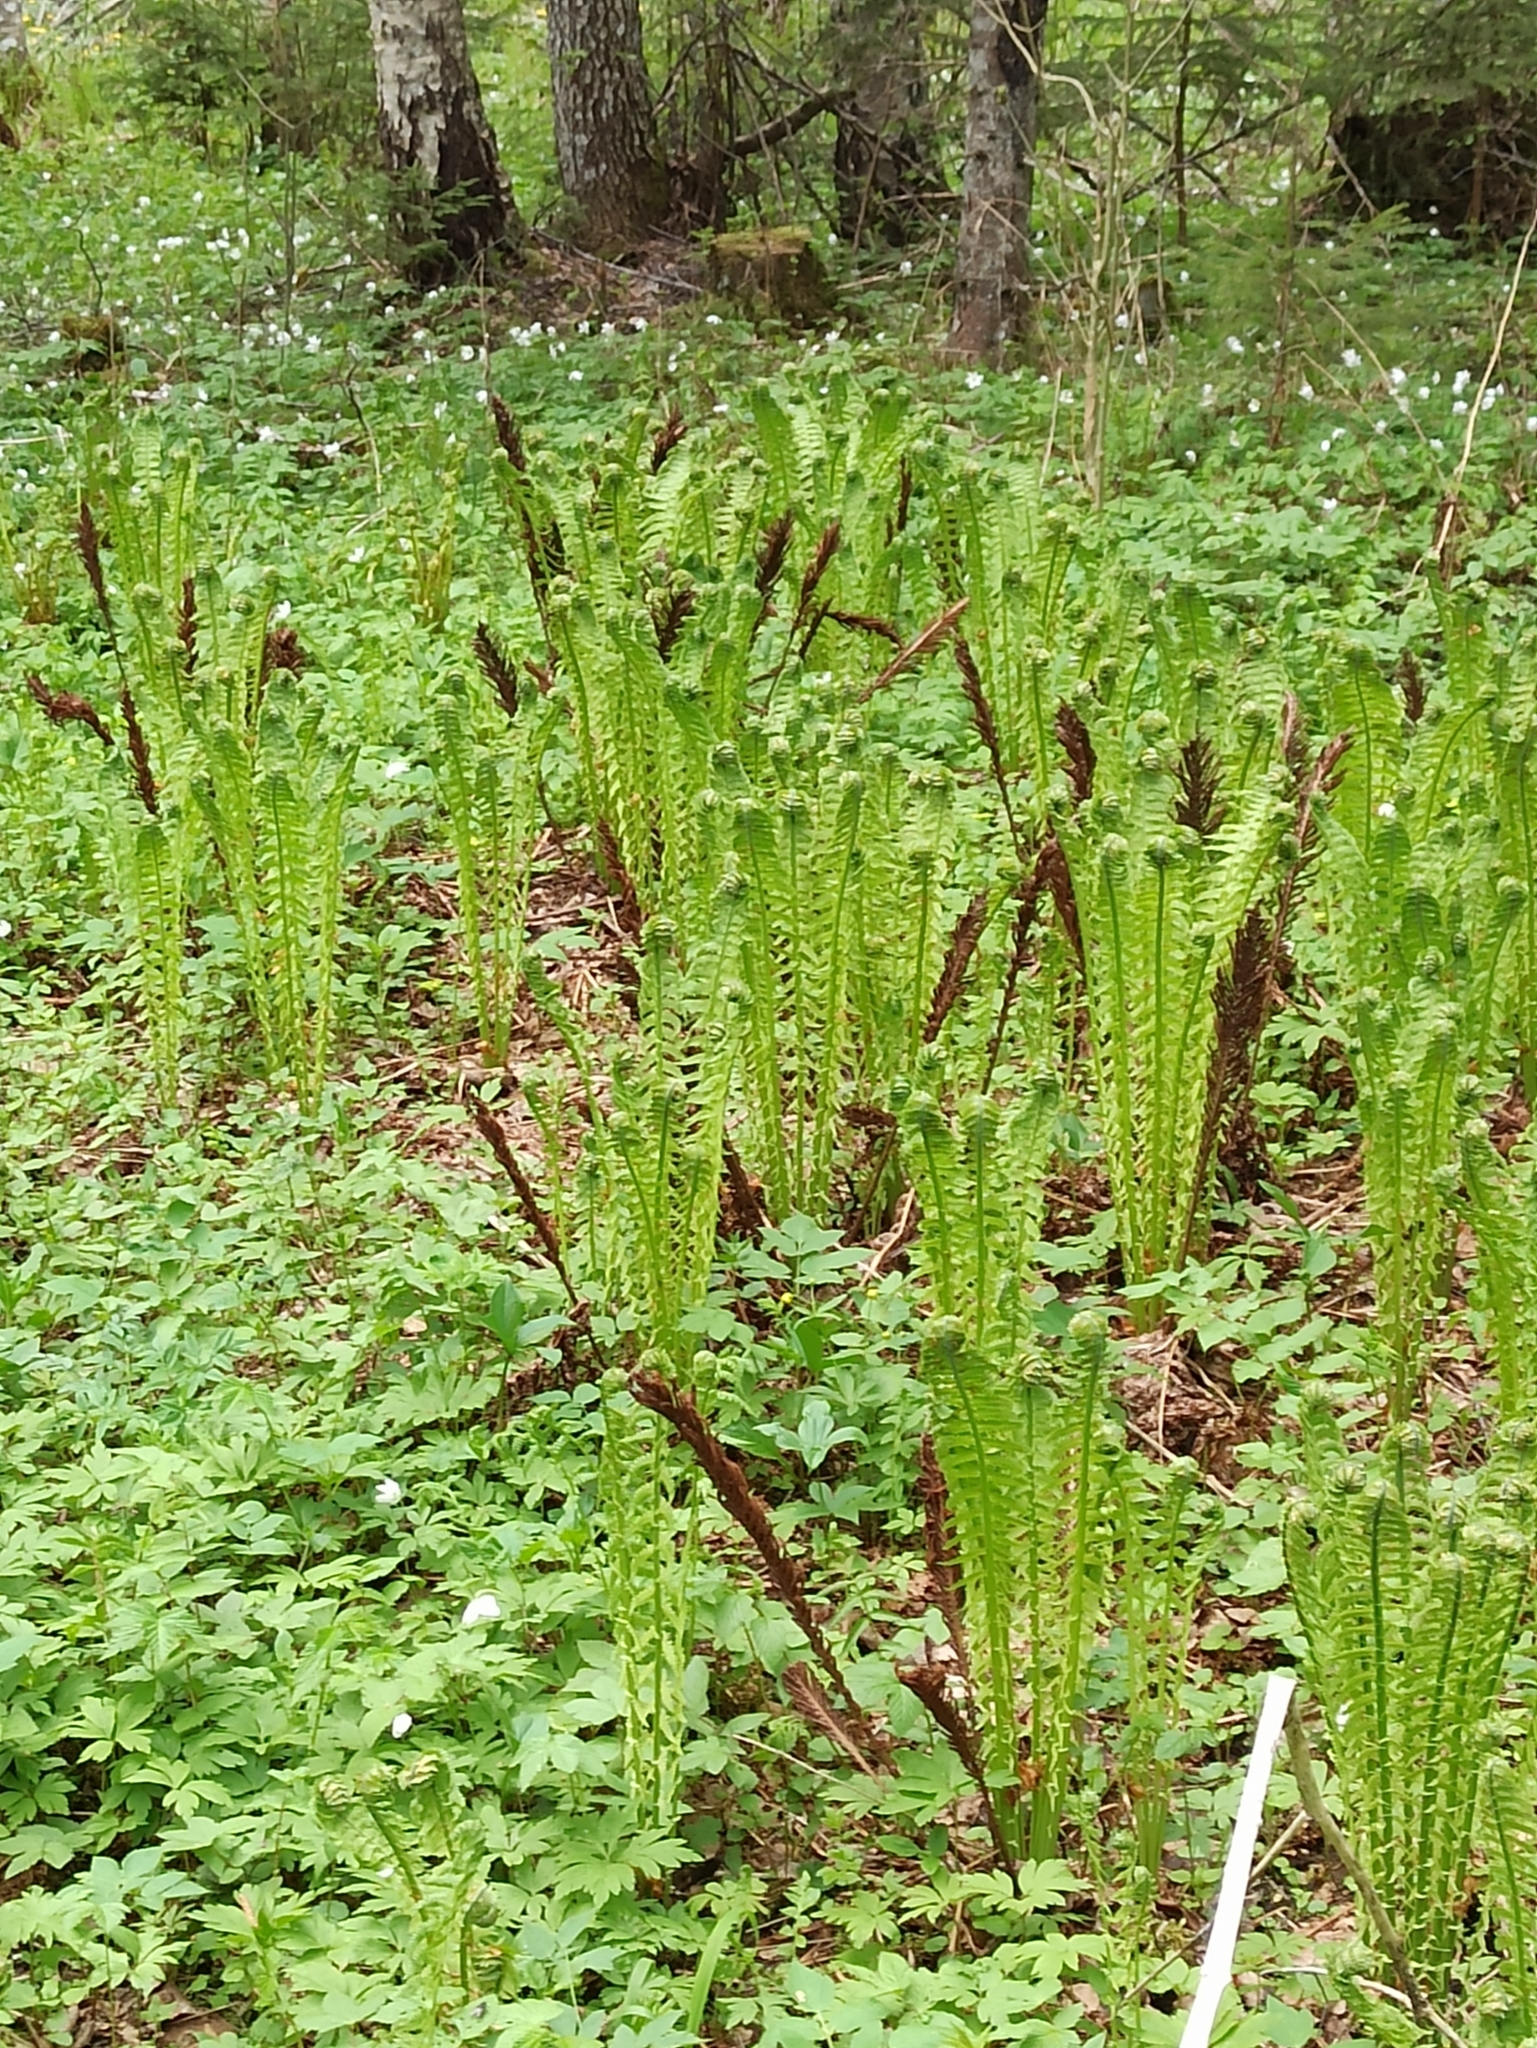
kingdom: Plantae
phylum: Tracheophyta
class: Polypodiopsida
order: Polypodiales
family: Onocleaceae
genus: Matteuccia
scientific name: Matteuccia struthiopteris
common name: Ostrich fern
